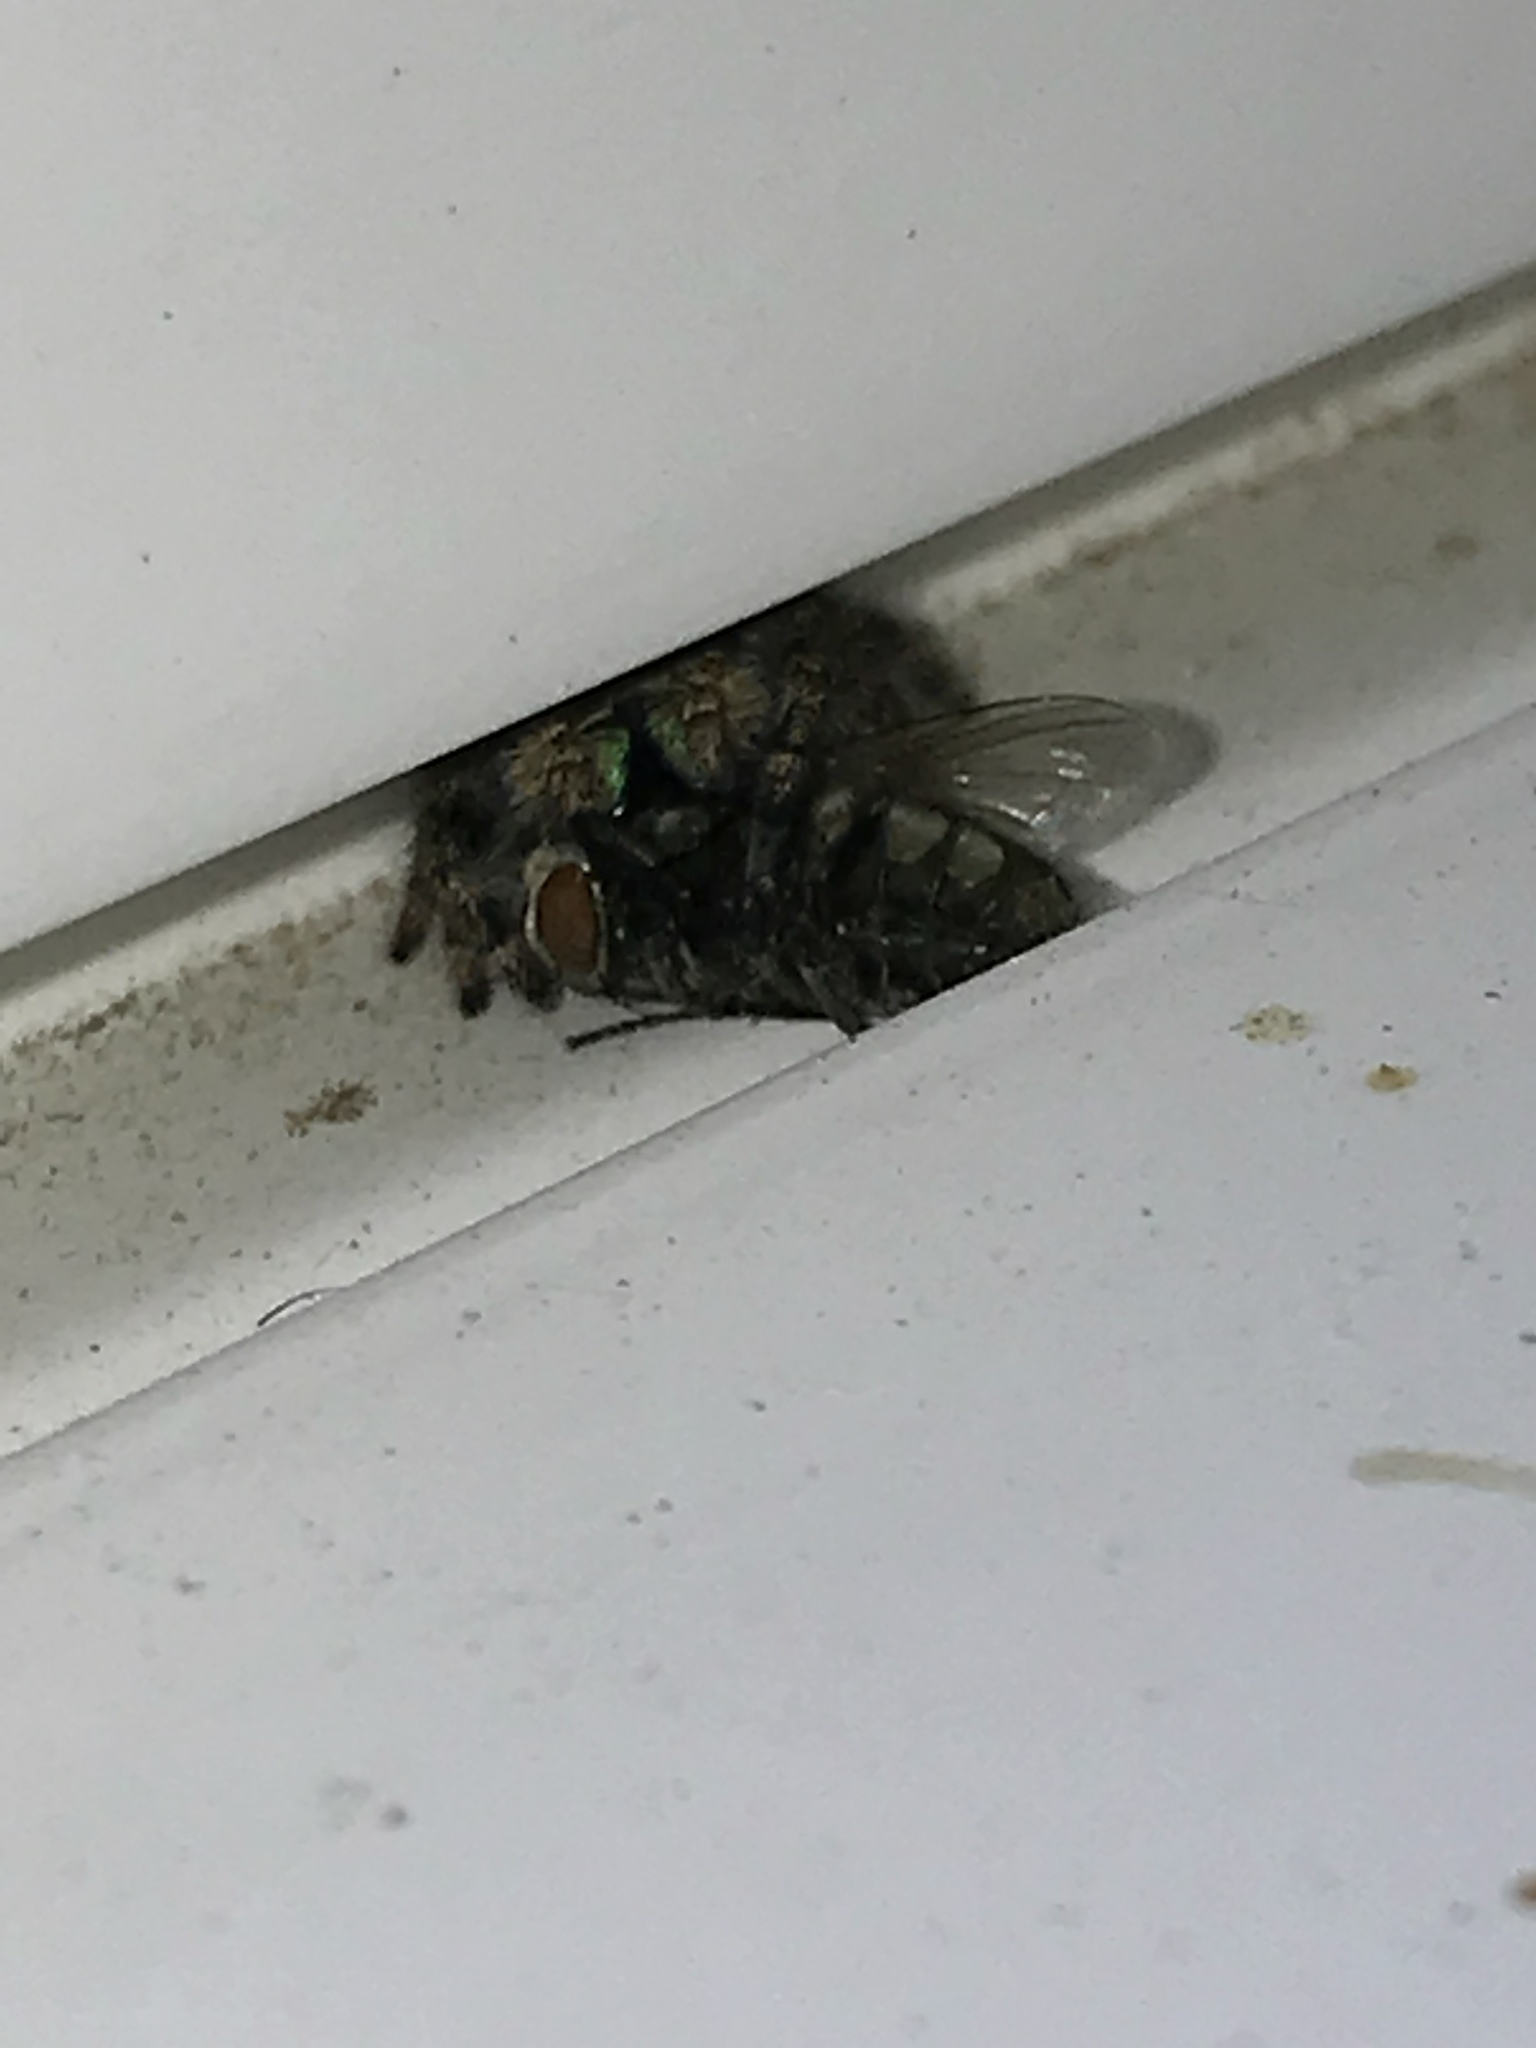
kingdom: Animalia
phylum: Arthropoda
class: Arachnida
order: Araneae
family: Salticidae
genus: Phidippus
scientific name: Phidippus audax
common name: Bold jumper
